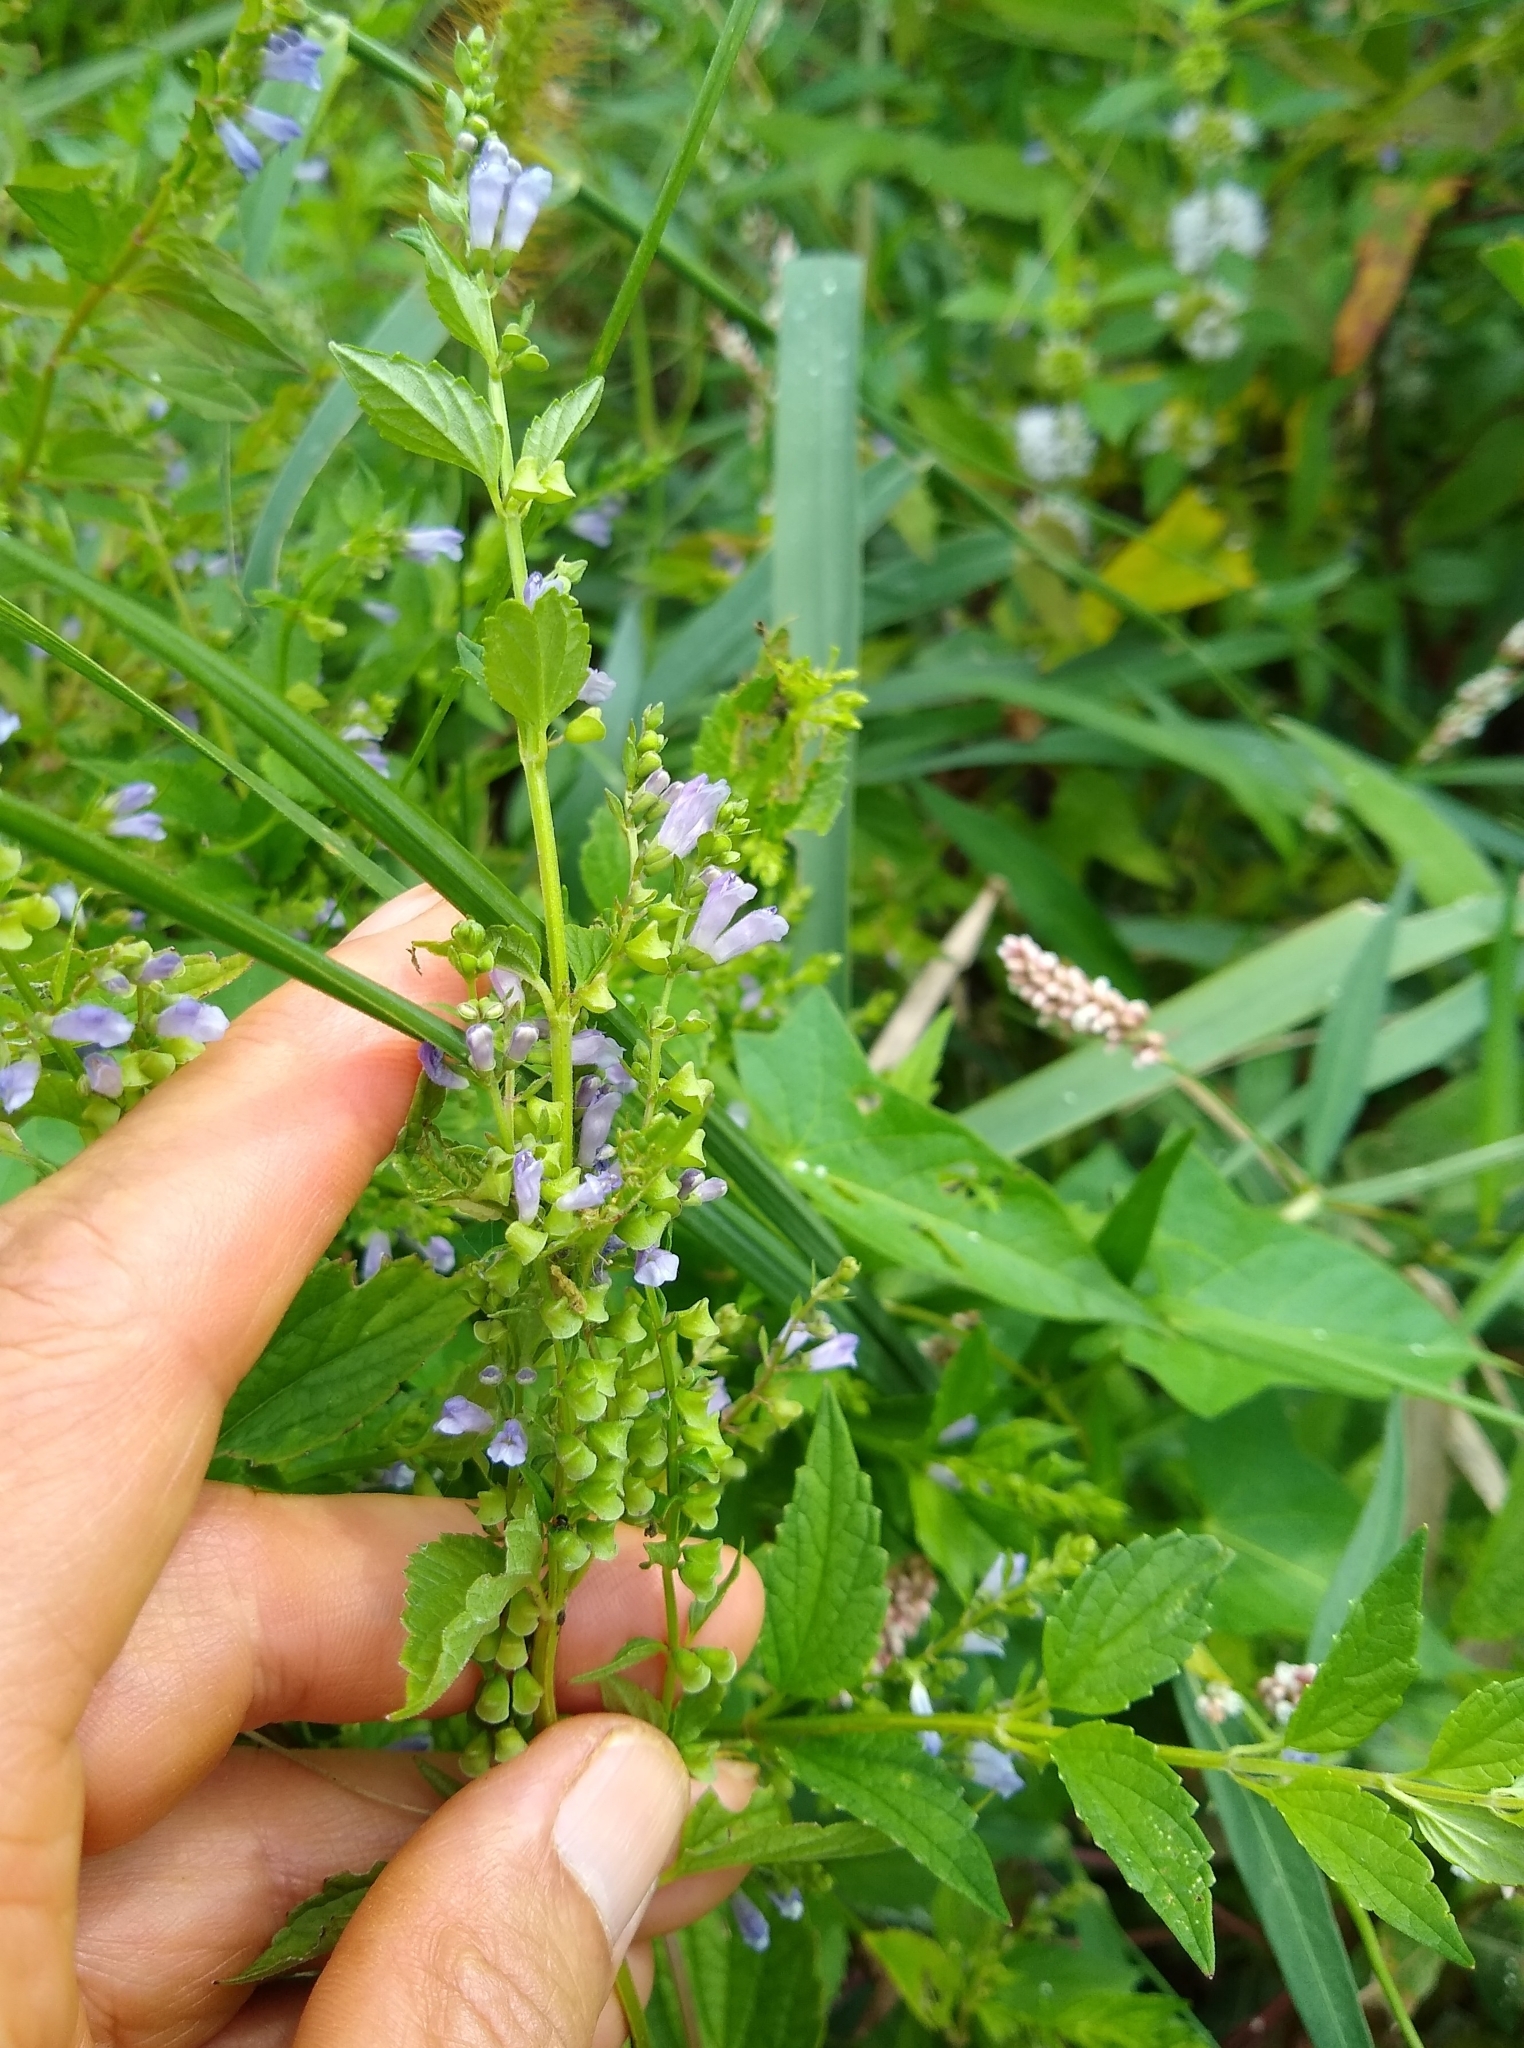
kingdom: Plantae
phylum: Tracheophyta
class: Magnoliopsida
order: Lamiales
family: Lamiaceae
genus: Scutellaria
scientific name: Scutellaria lateriflora
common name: Blue skullcap
